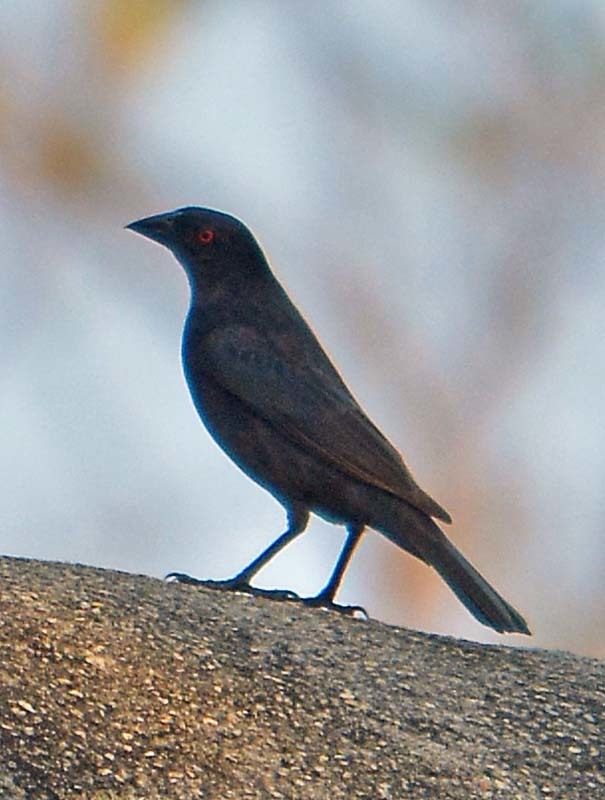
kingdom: Animalia
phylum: Chordata
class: Aves
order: Passeriformes
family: Icteridae
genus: Molothrus
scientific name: Molothrus aeneus
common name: Bronzed cowbird
